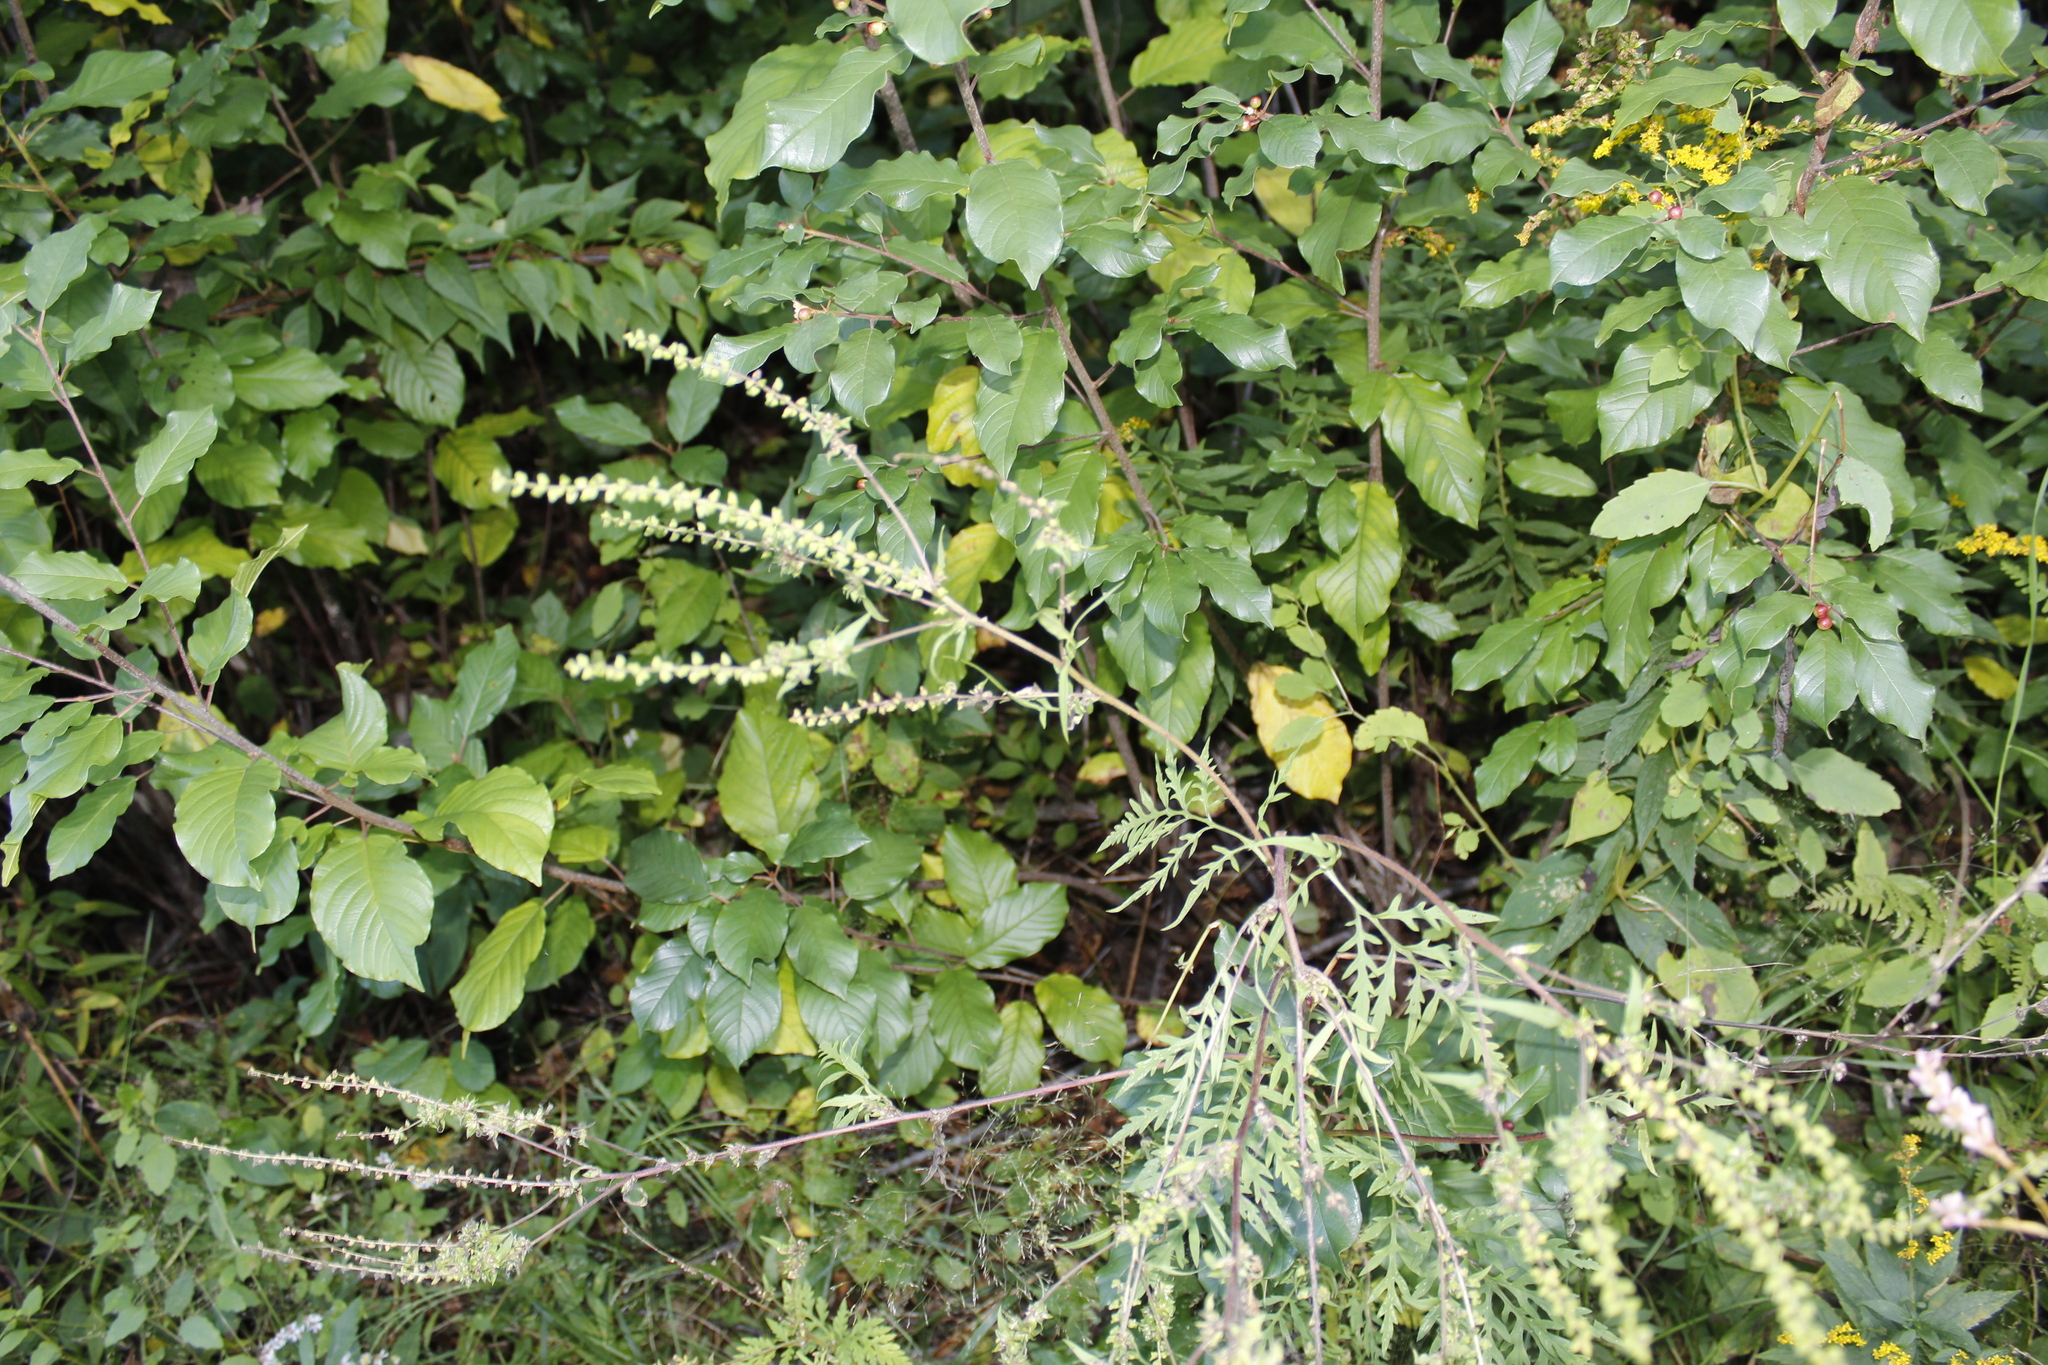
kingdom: Plantae
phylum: Tracheophyta
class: Magnoliopsida
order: Asterales
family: Asteraceae
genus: Artemisia
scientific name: Artemisia vulgaris
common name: Mugwort
